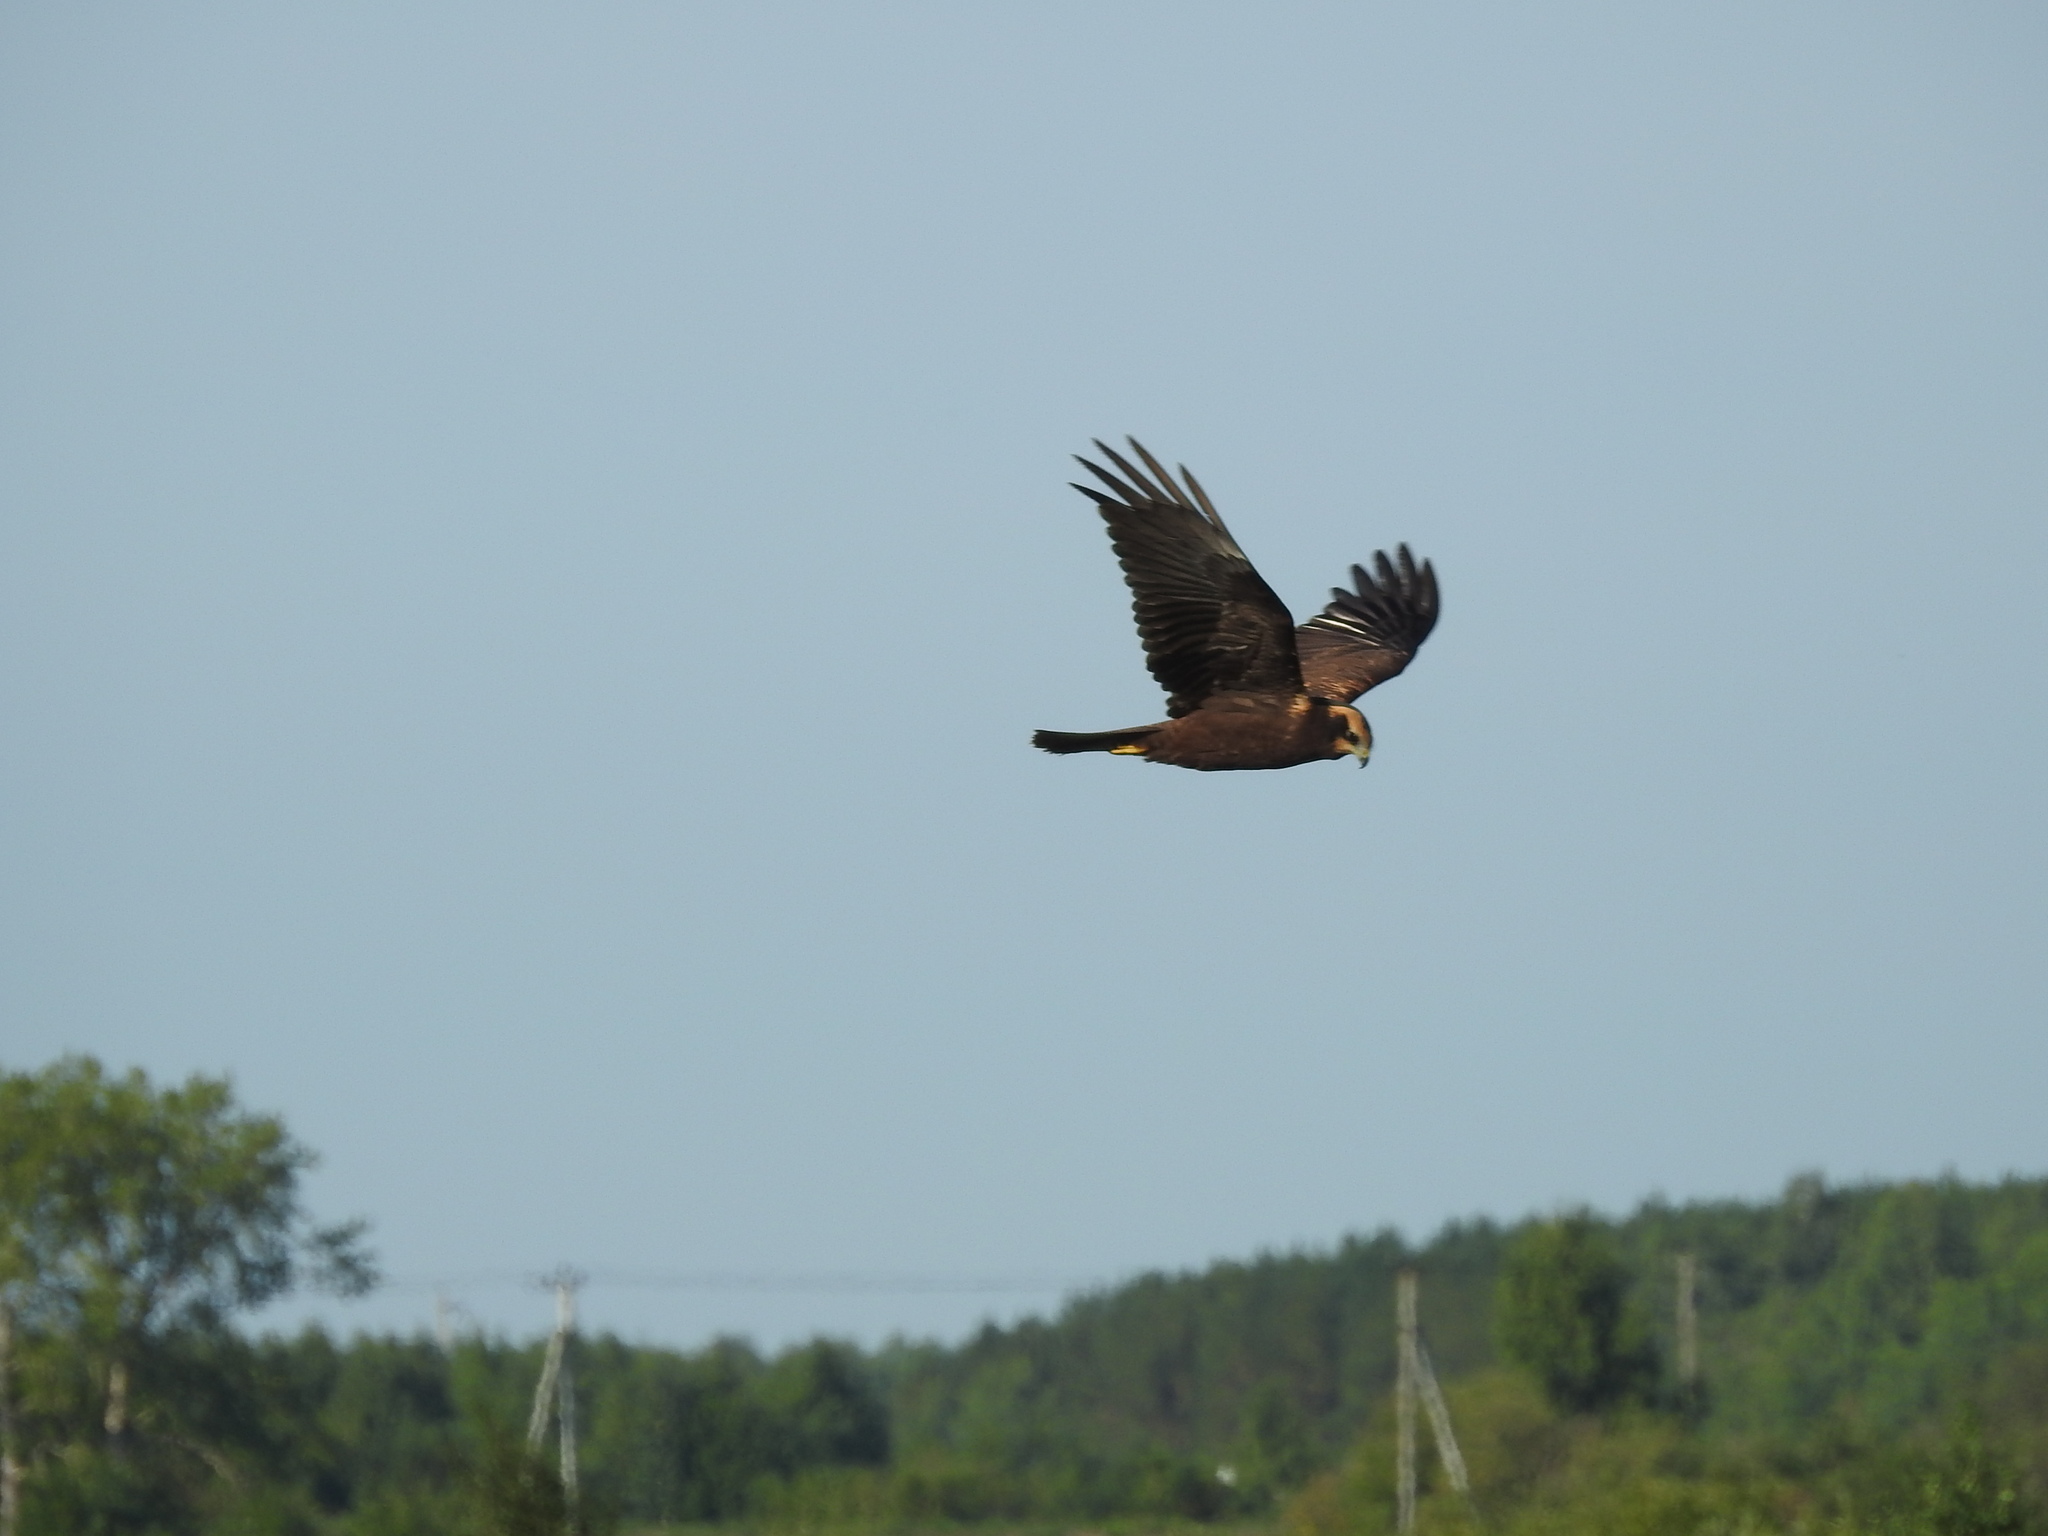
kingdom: Animalia
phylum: Chordata
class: Aves
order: Accipitriformes
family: Accipitridae
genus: Circus
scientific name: Circus aeruginosus
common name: Western marsh harrier
